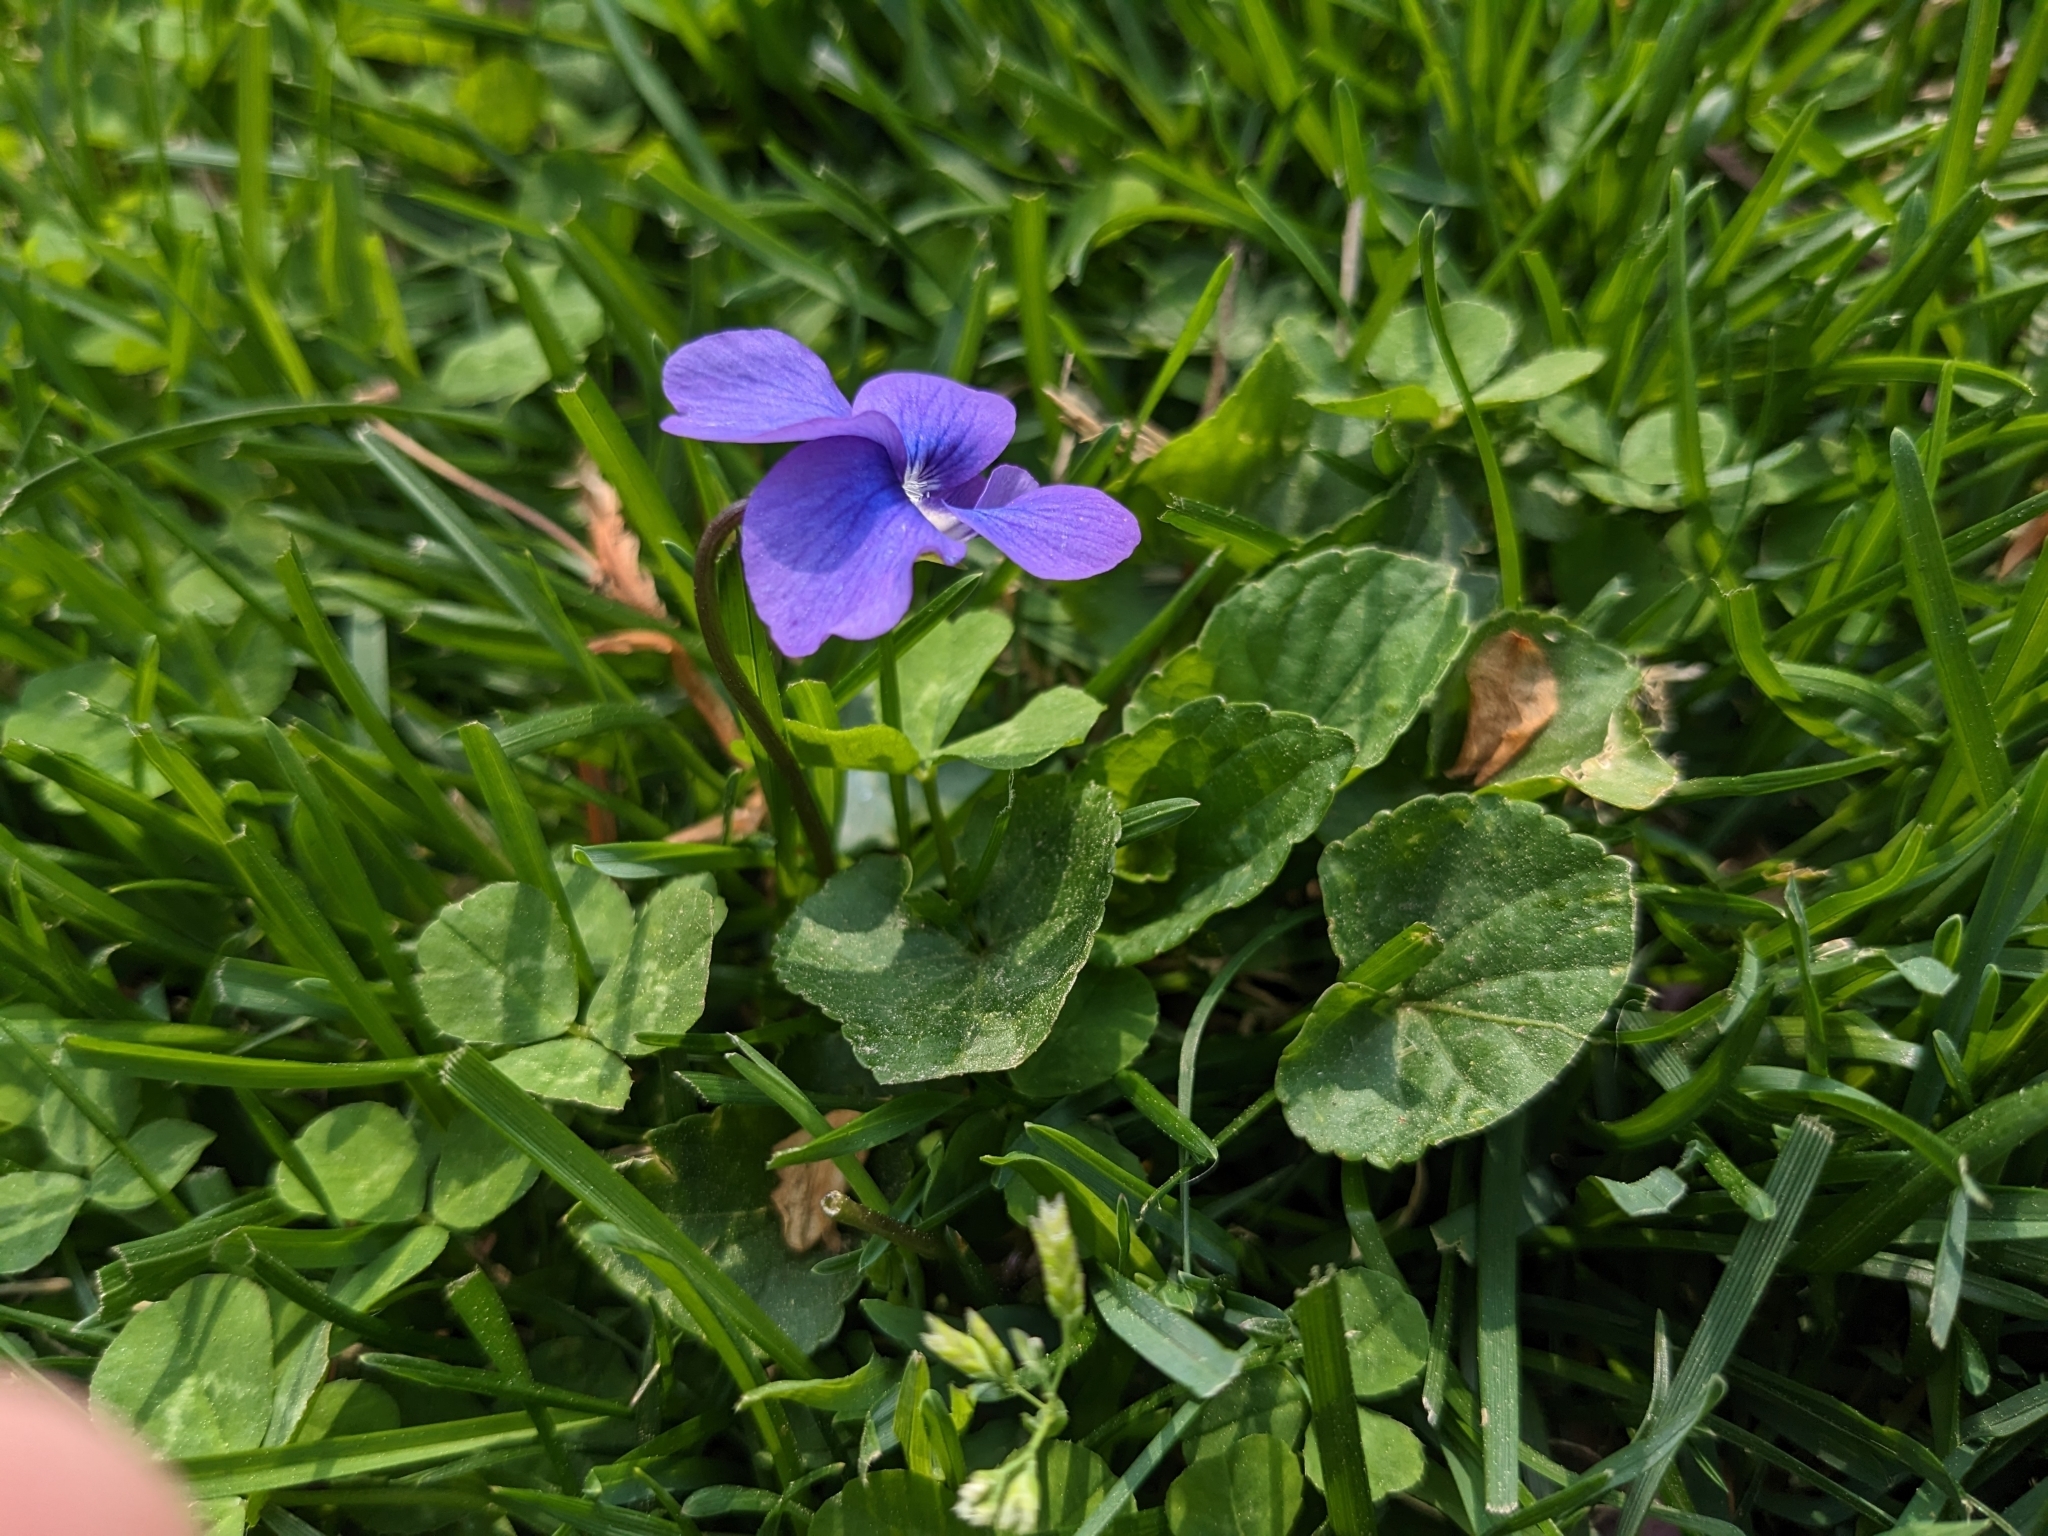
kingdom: Plantae
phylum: Tracheophyta
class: Magnoliopsida
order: Malpighiales
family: Violaceae
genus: Viola
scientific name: Viola sororia
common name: Dooryard violet
